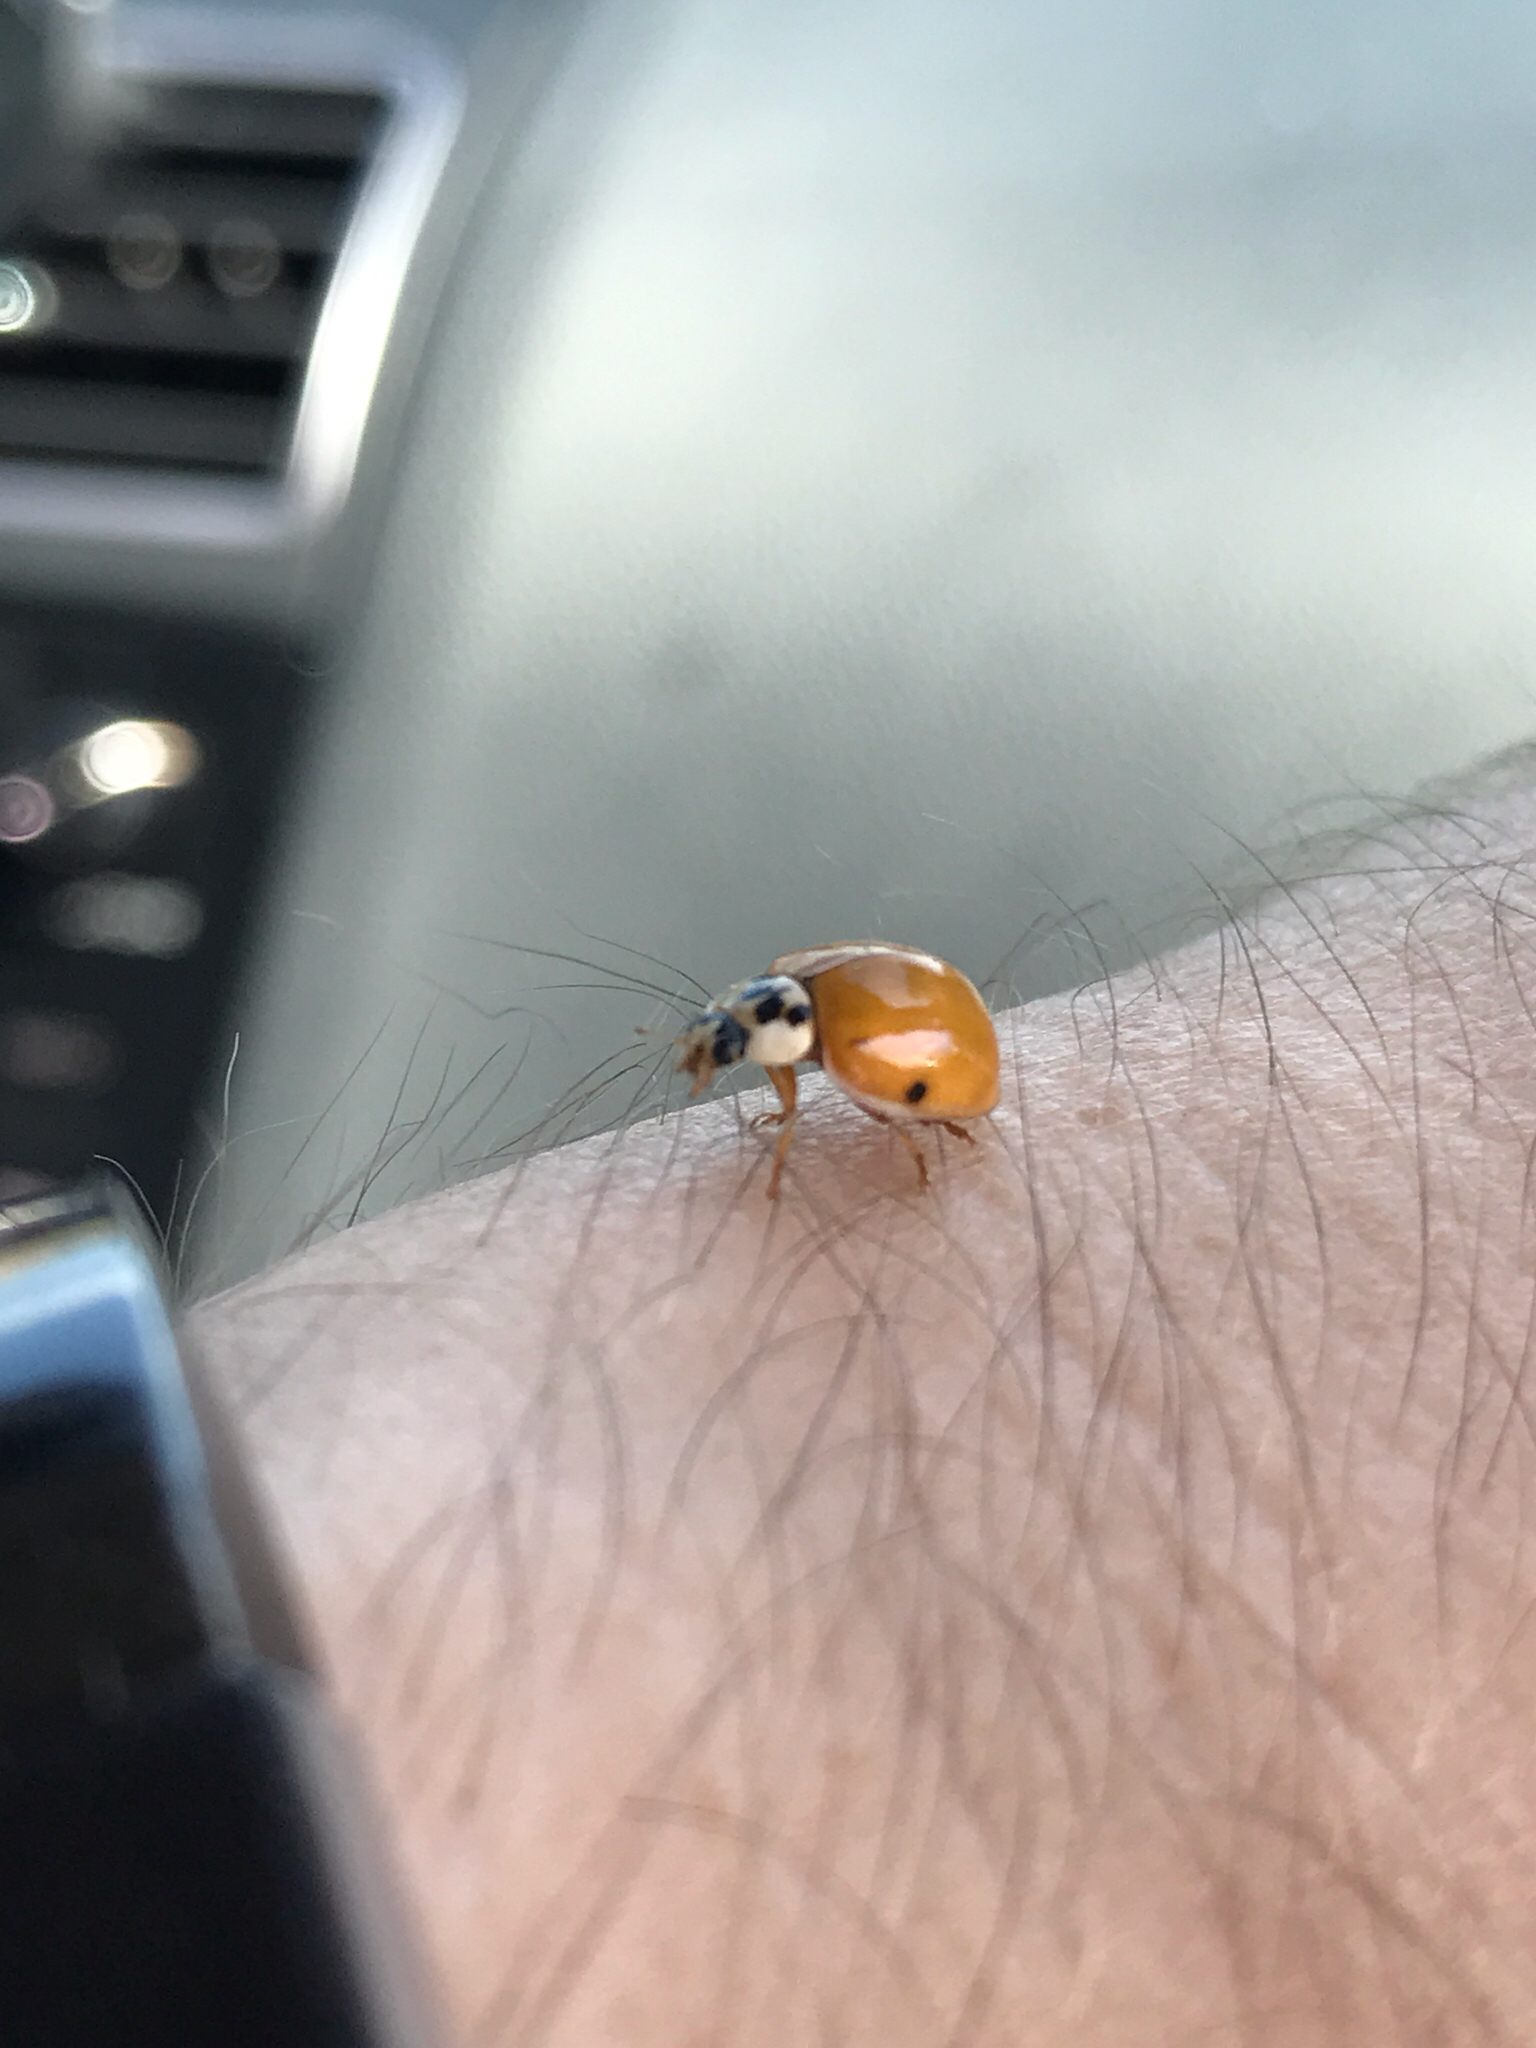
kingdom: Animalia
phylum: Arthropoda
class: Insecta
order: Coleoptera
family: Coccinellidae
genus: Harmonia
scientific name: Harmonia axyridis
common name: Harlequin ladybird
